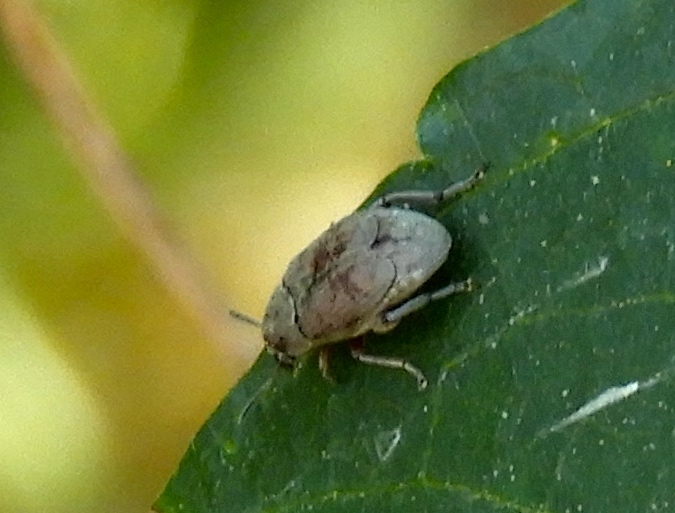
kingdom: Animalia
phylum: Arthropoda
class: Insecta
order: Coleoptera
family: Bruchidae
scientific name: Bruchidae
